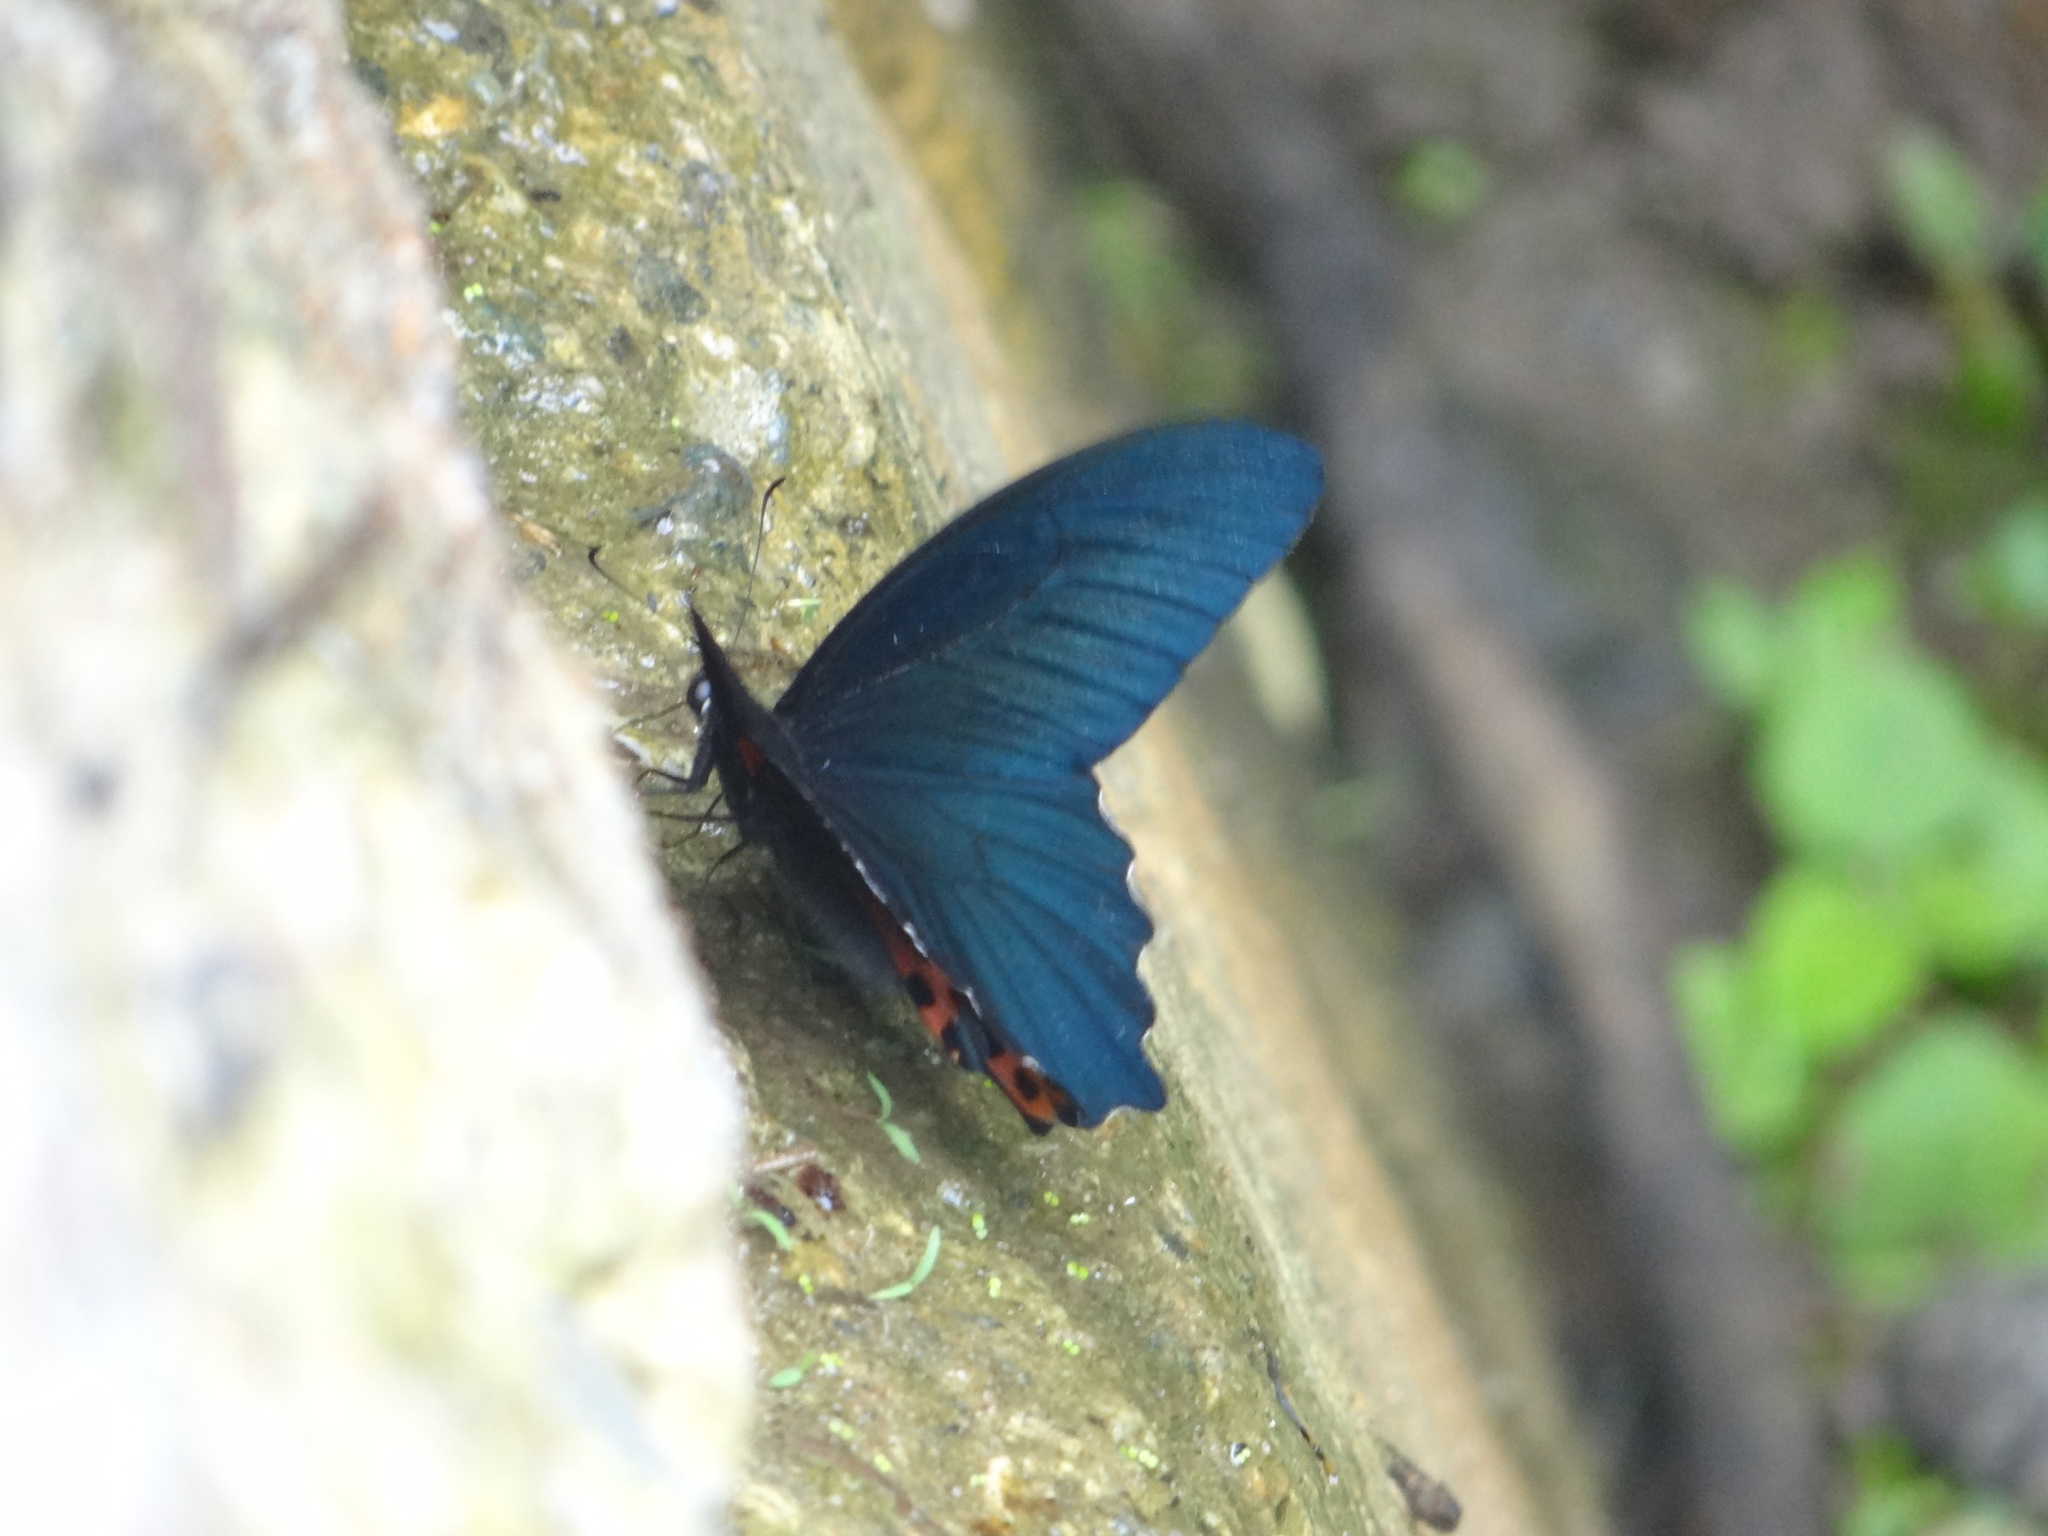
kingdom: Animalia
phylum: Arthropoda
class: Insecta
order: Lepidoptera
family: Papilionidae
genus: Papilio
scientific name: Papilio thaiwanus
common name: Formosan swallowtail
